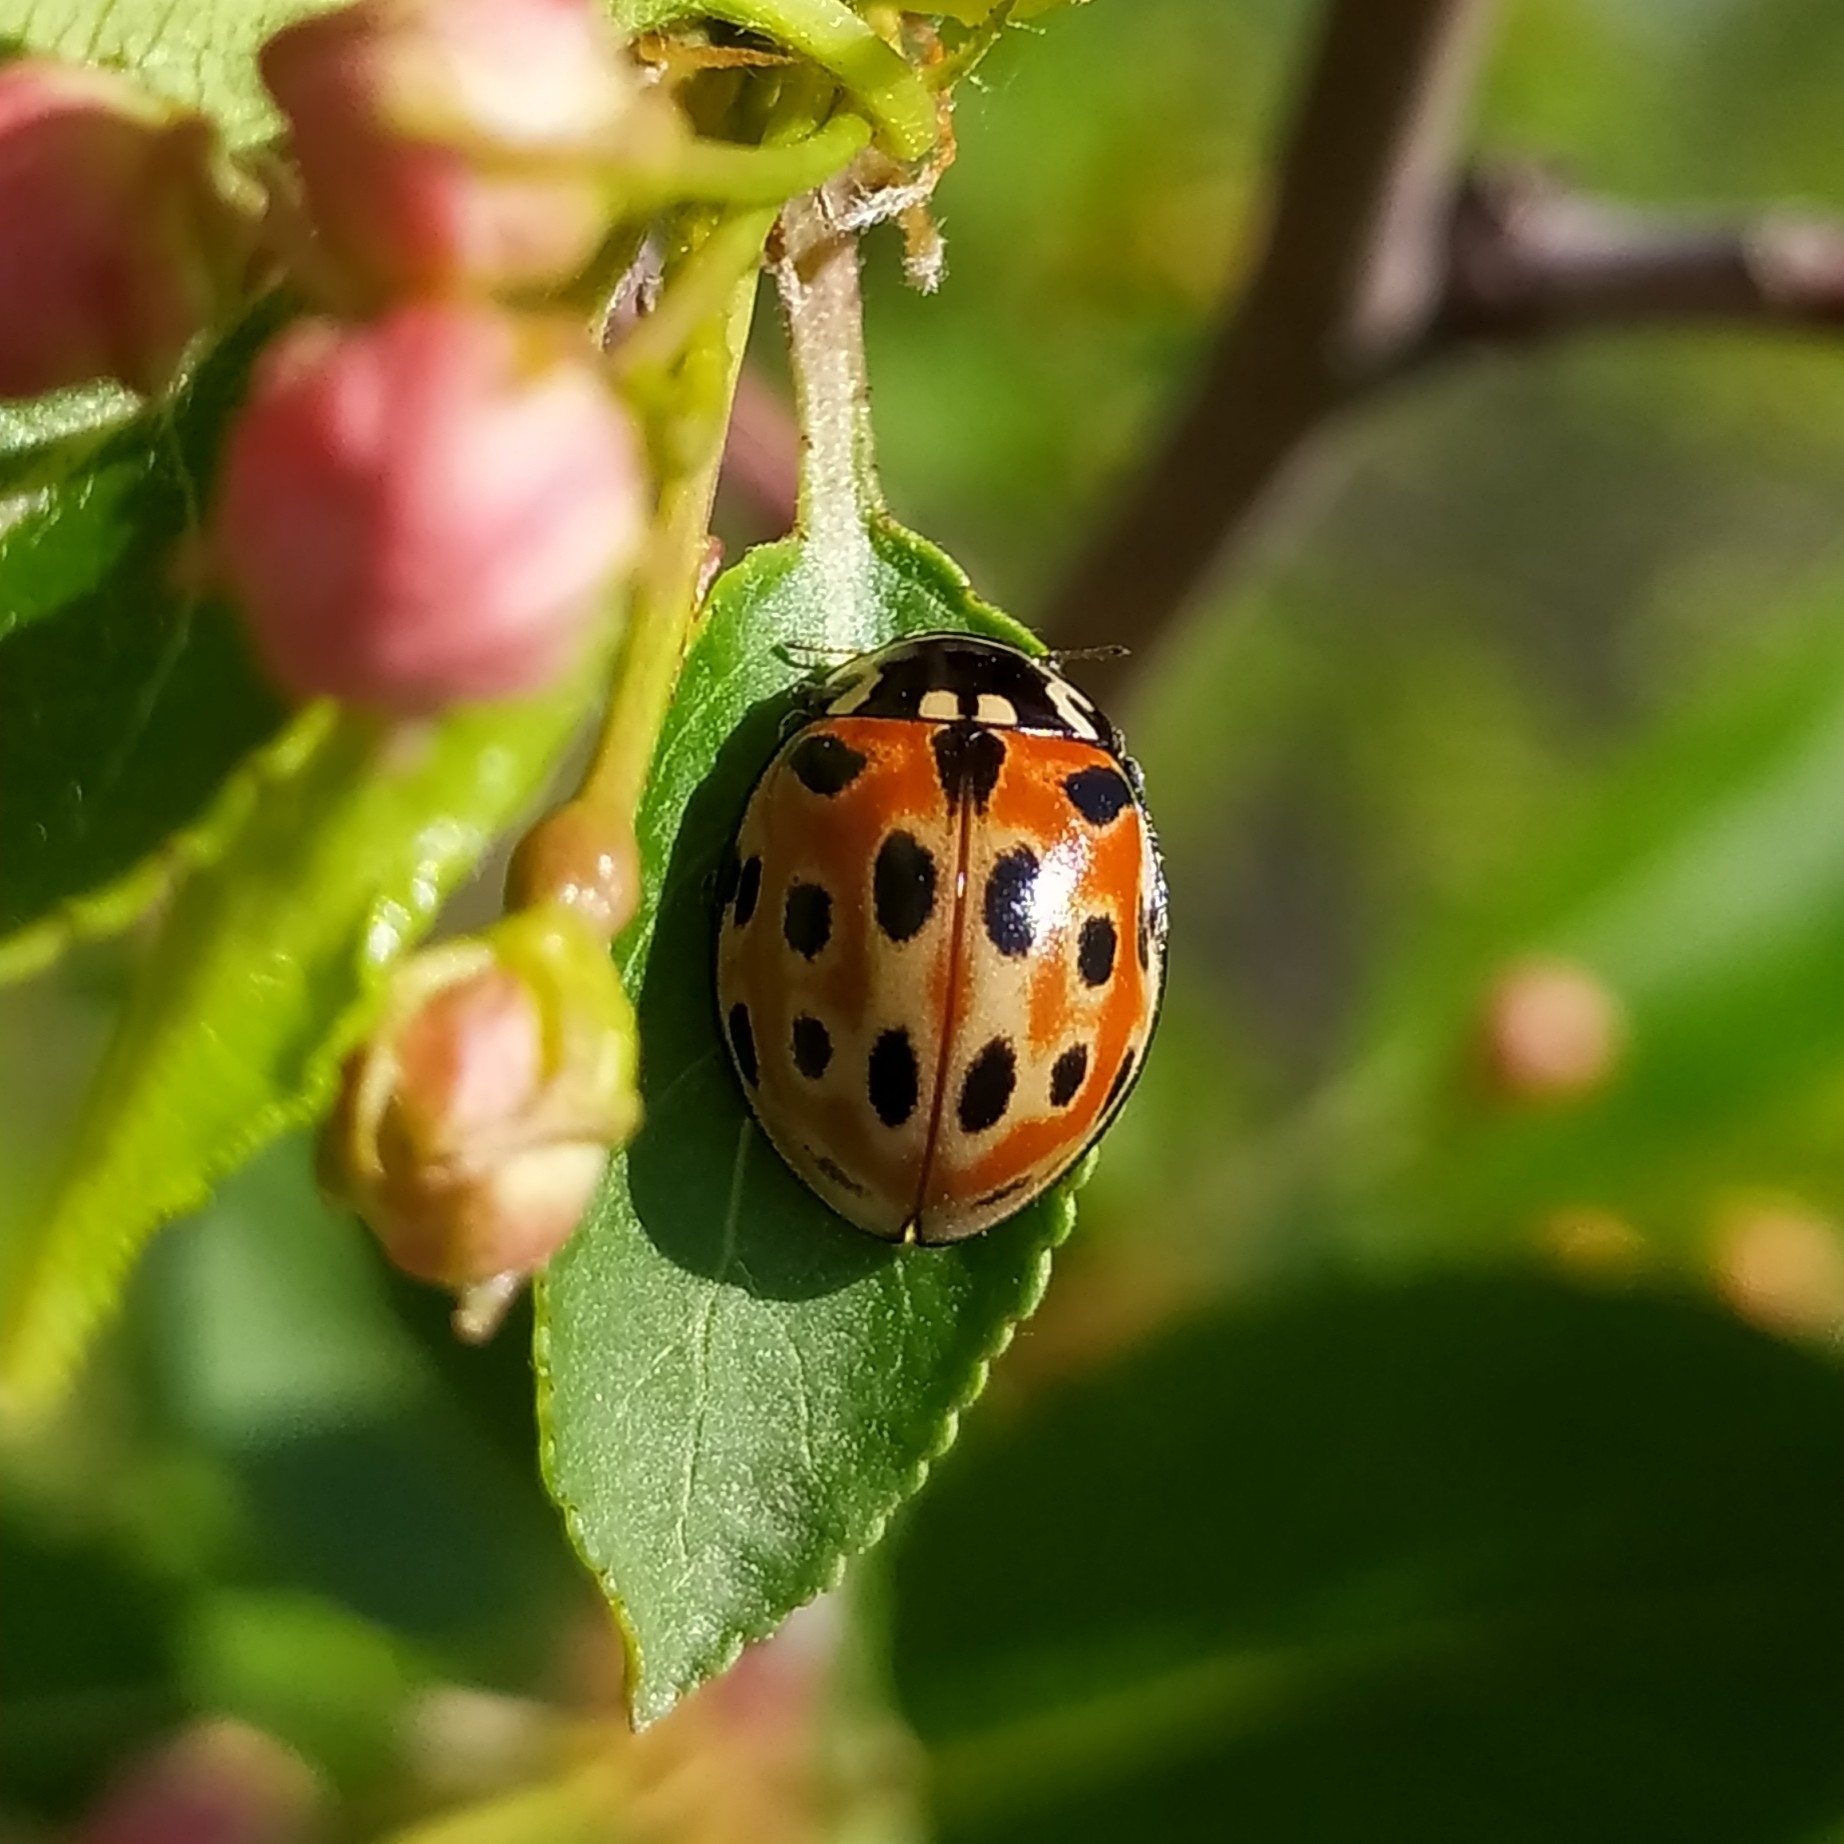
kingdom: Animalia
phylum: Arthropoda
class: Insecta
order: Coleoptera
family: Coccinellidae
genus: Anatis
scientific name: Anatis ocellata
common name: Eyed ladybird
